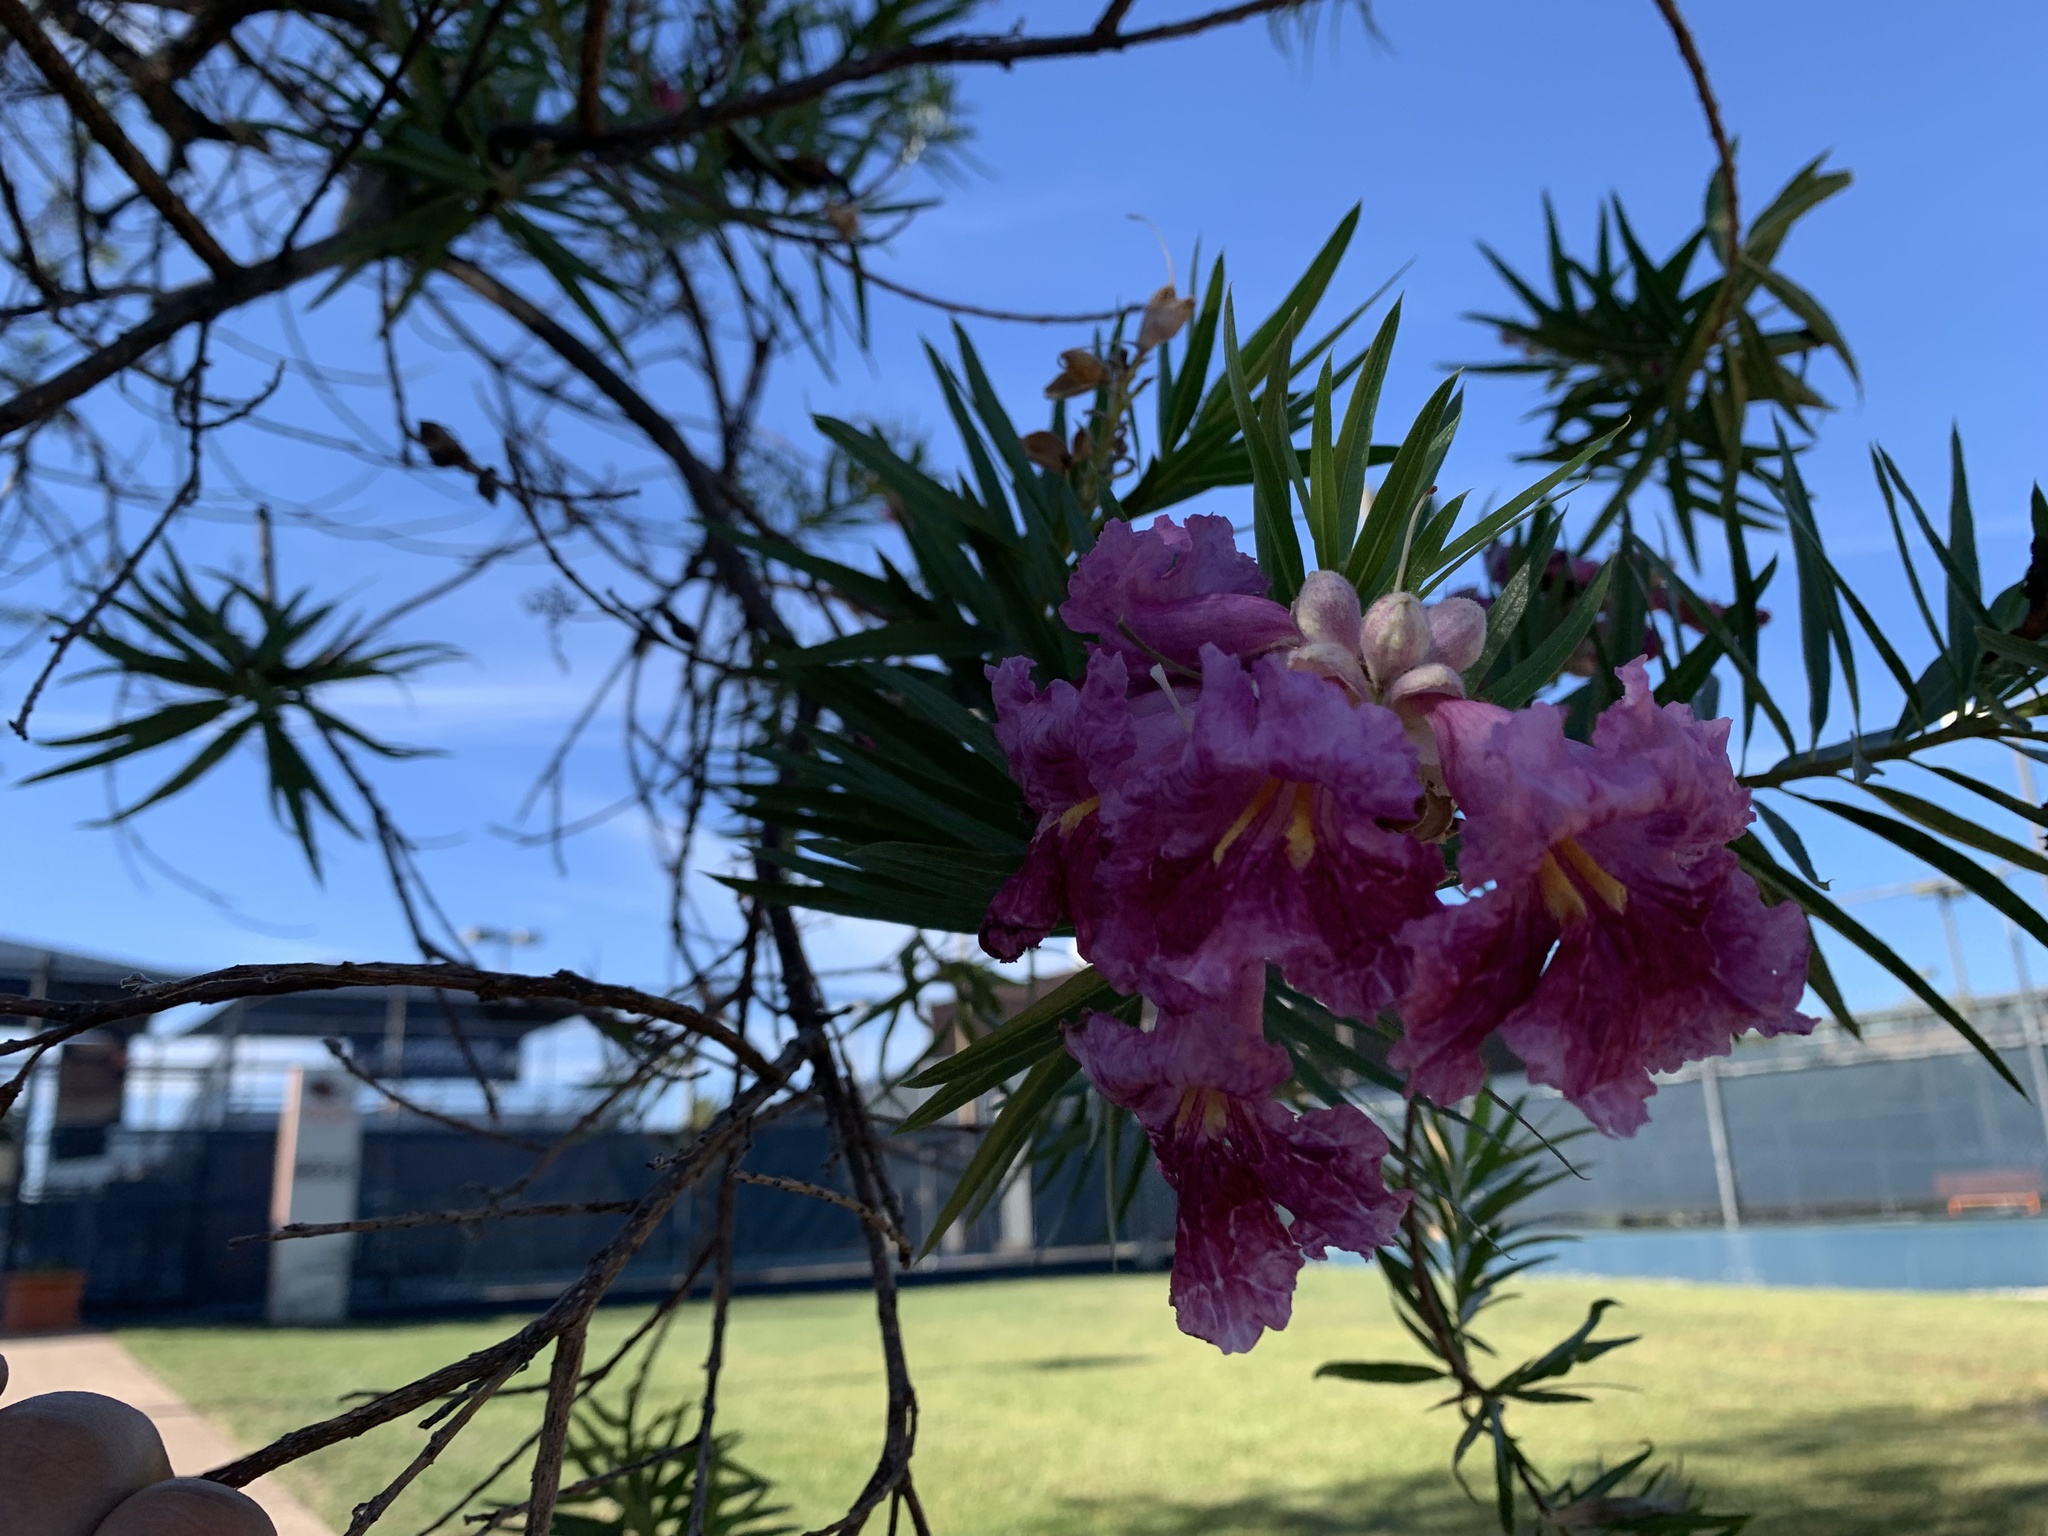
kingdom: Plantae
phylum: Tracheophyta
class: Magnoliopsida
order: Lamiales
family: Bignoniaceae
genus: Chilopsis
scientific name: Chilopsis linearis
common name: Desert-willow
